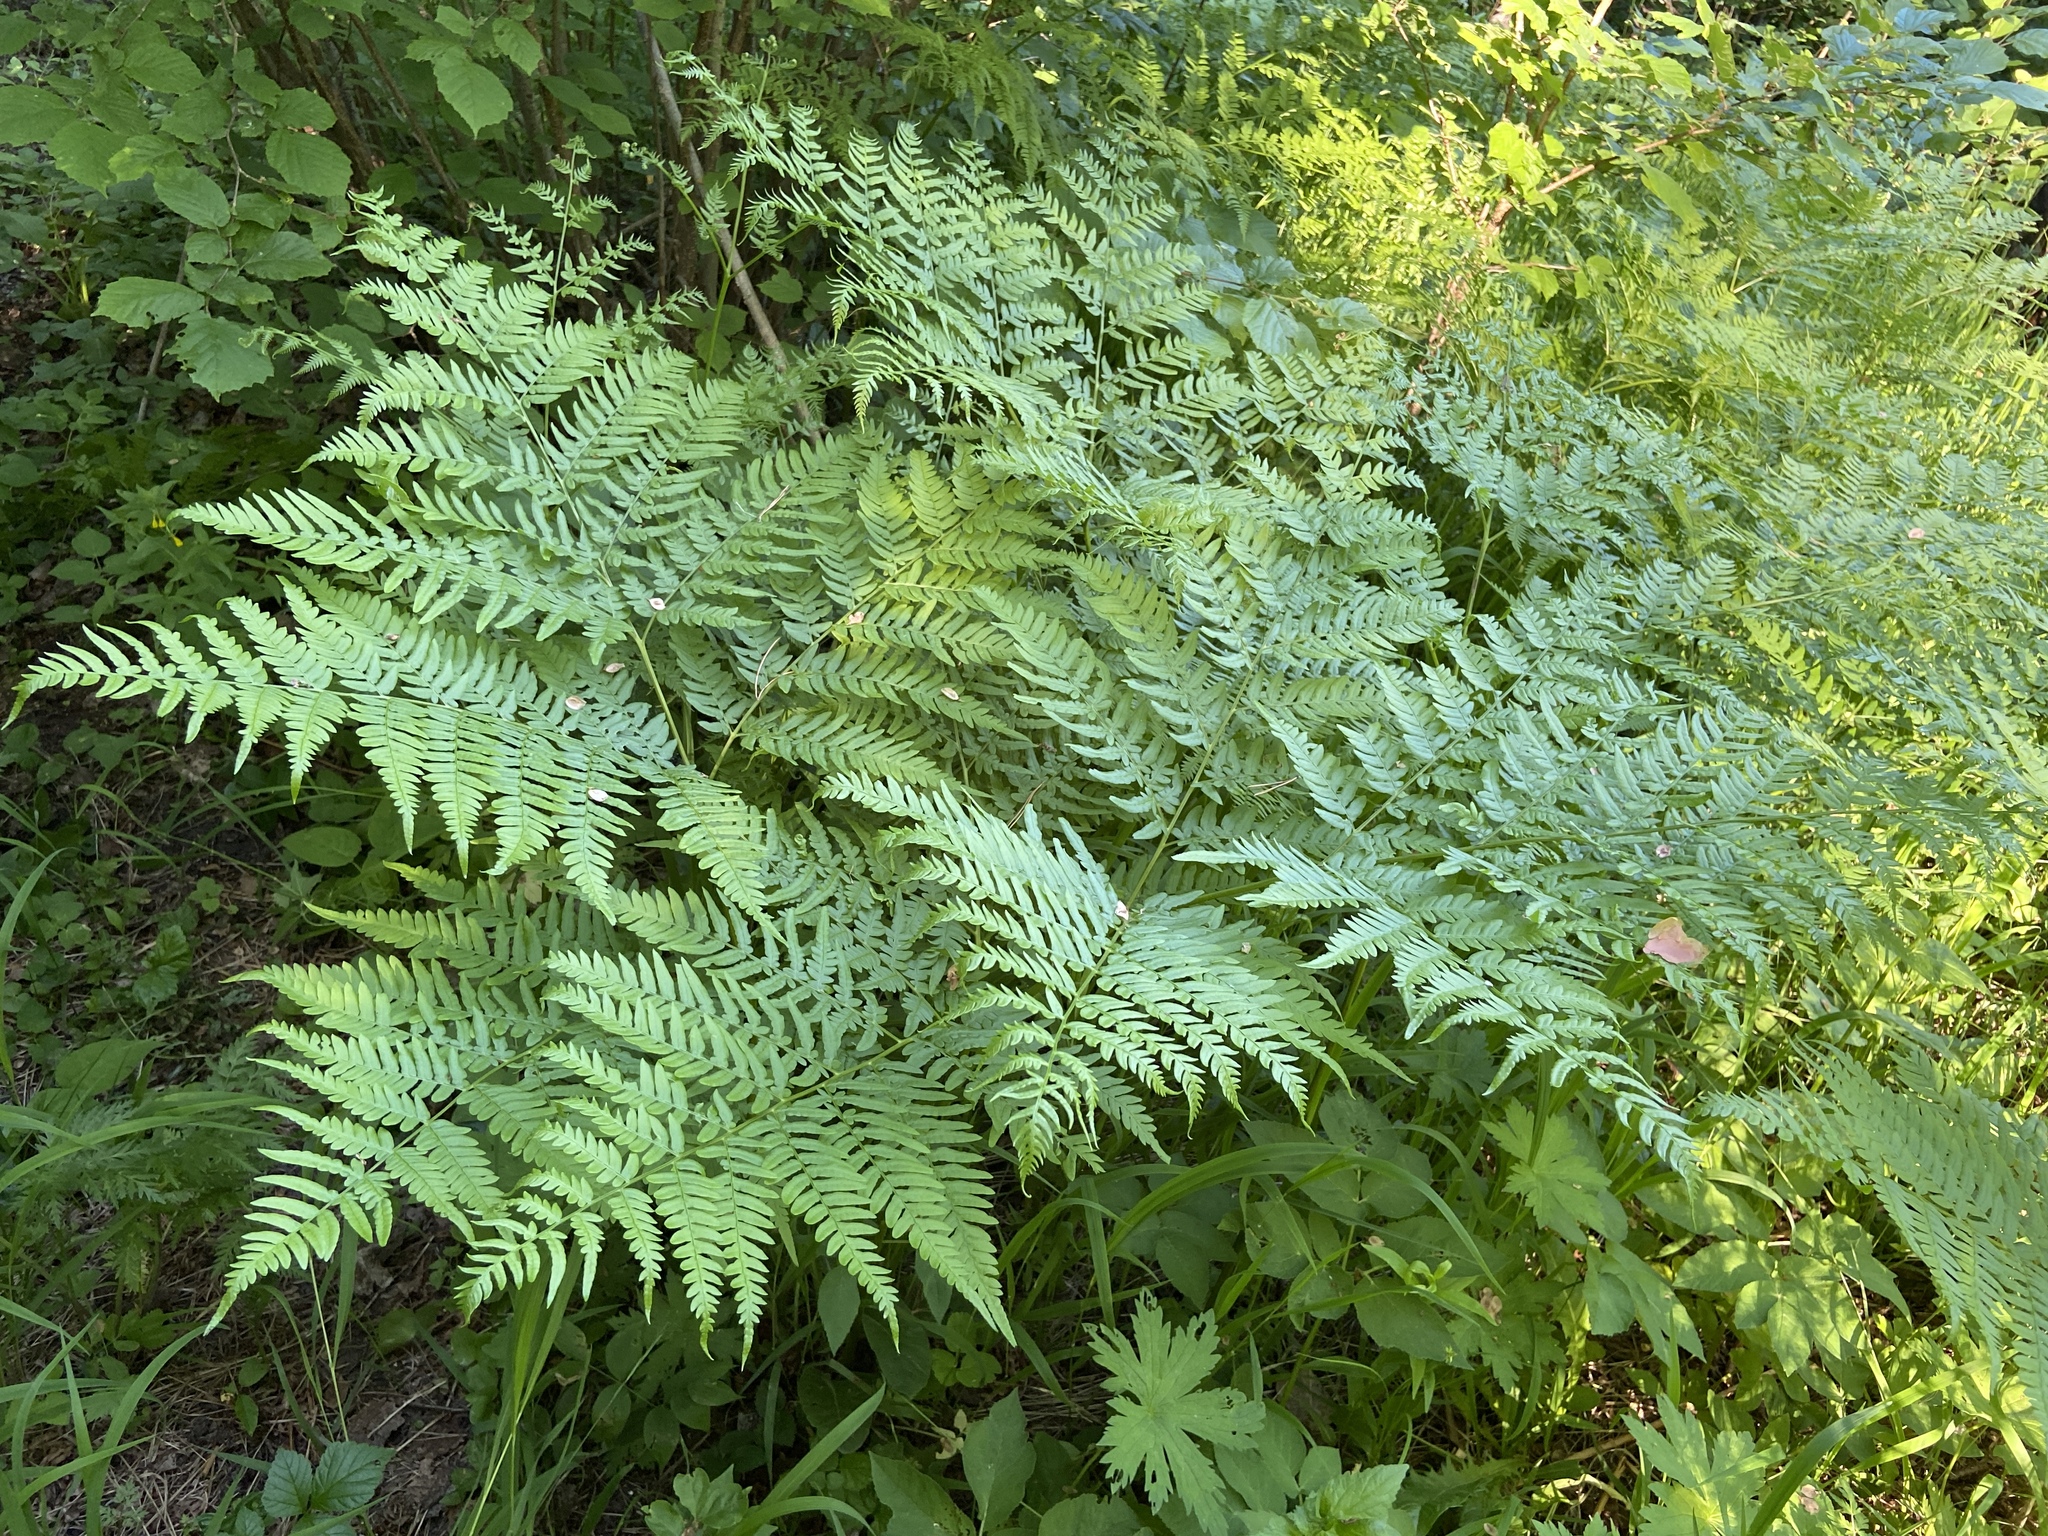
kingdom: Plantae
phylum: Tracheophyta
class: Polypodiopsida
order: Polypodiales
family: Dennstaedtiaceae
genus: Pteridium
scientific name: Pteridium aquilinum
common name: Bracken
